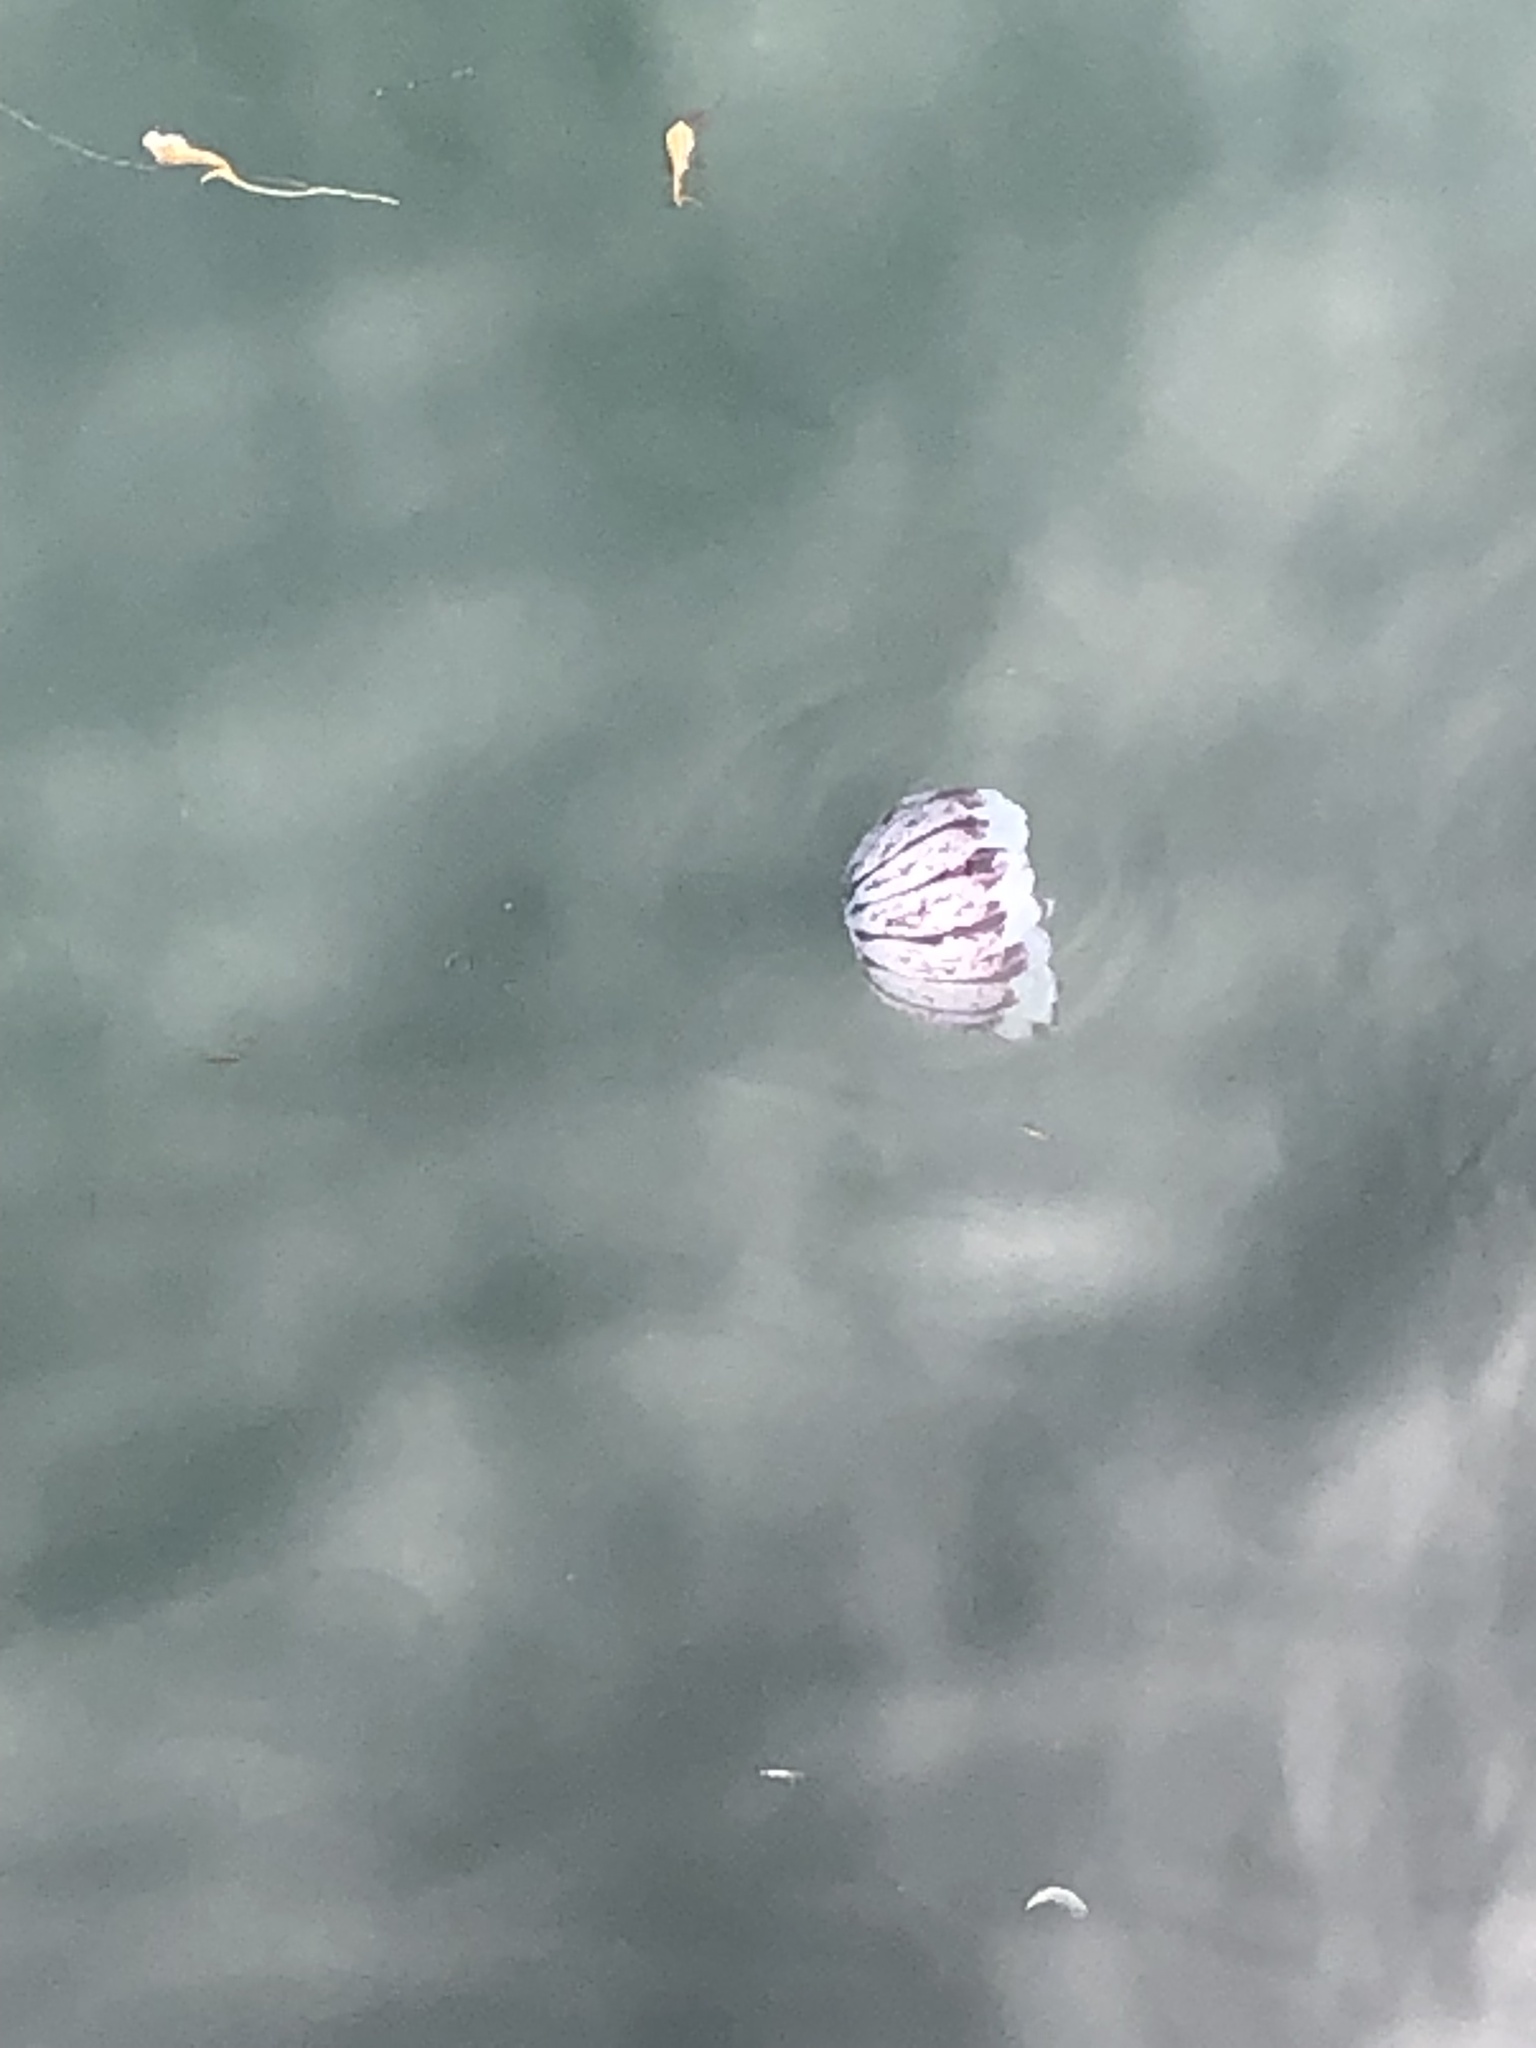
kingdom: Animalia
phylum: Cnidaria
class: Scyphozoa
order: Semaeostomeae
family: Pelagiidae
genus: Chrysaora
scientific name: Chrysaora colorata
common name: Purple-striped jellyfish
